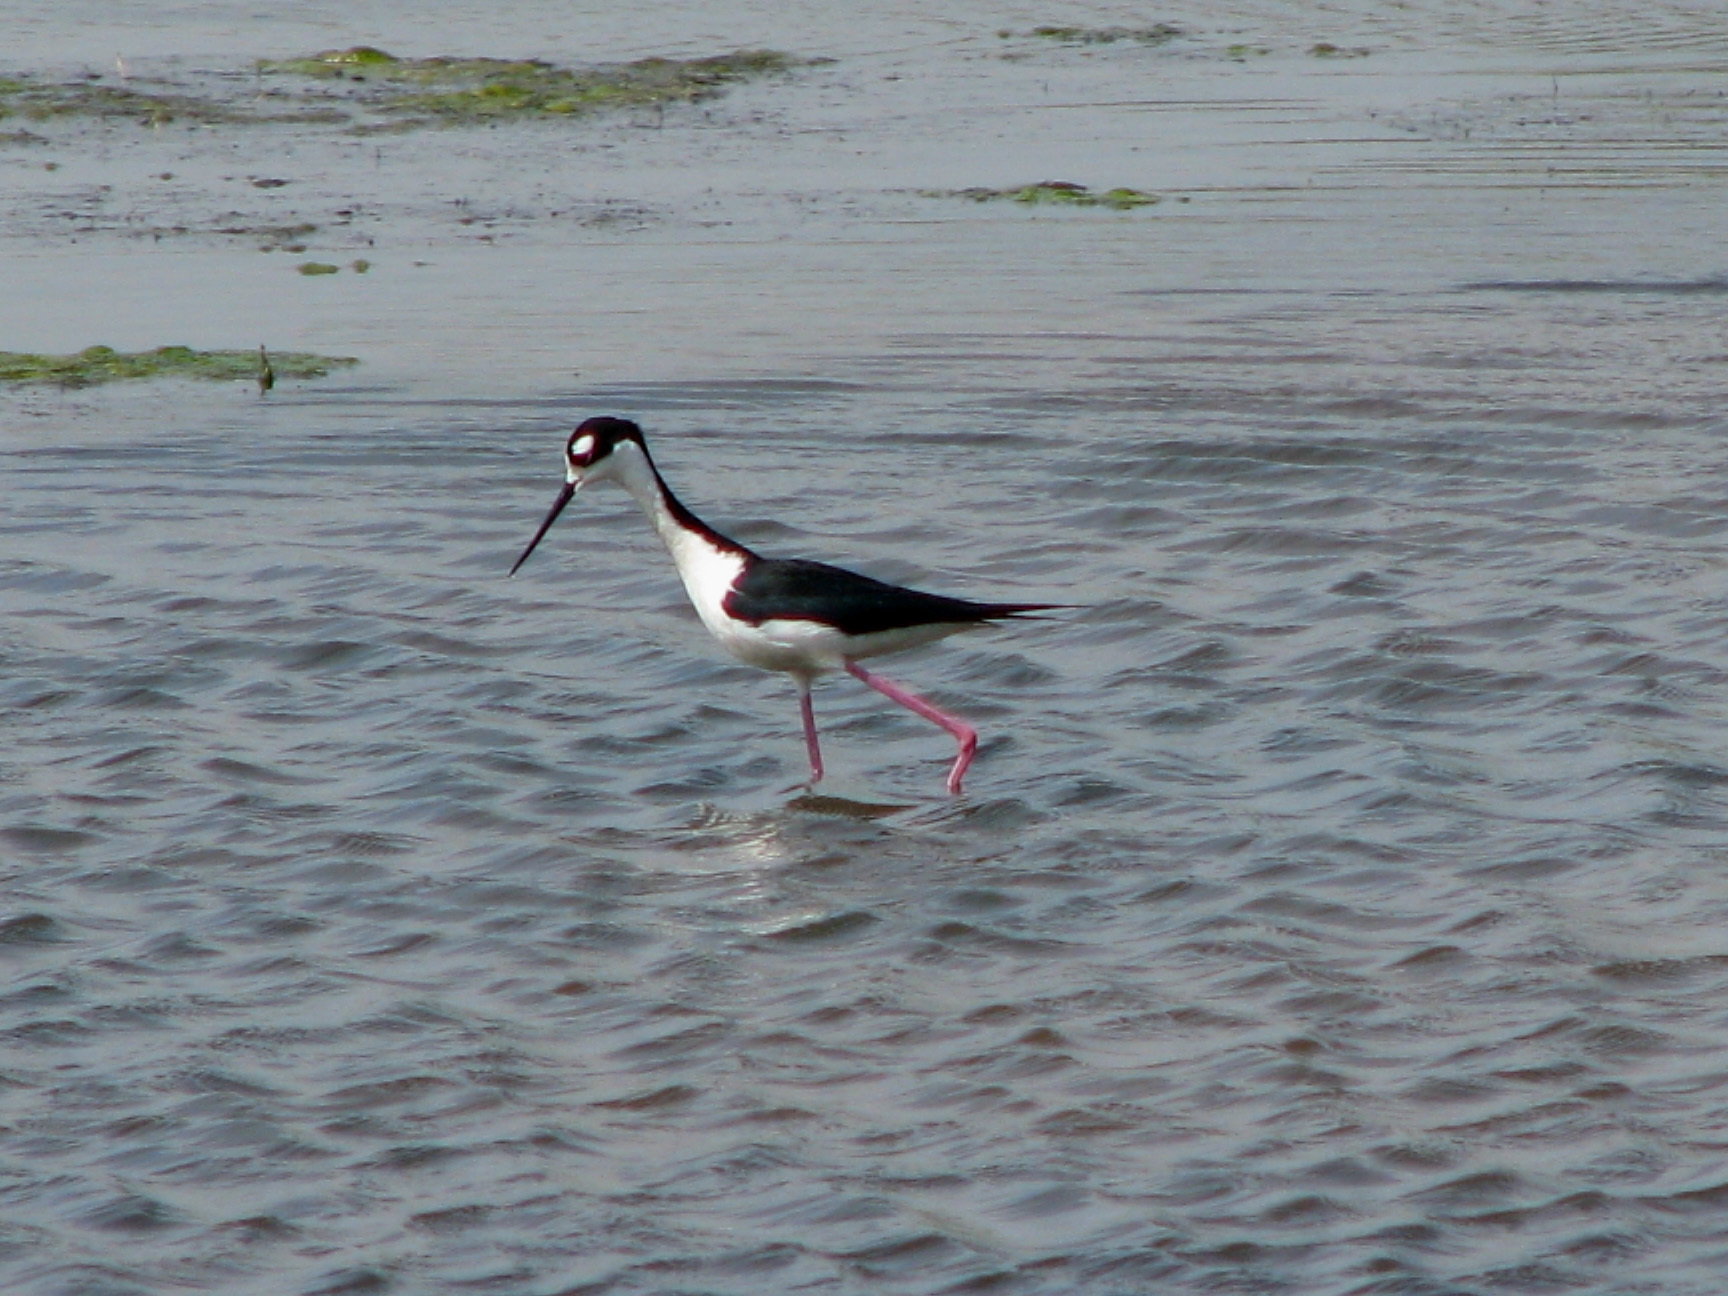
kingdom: Animalia
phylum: Chordata
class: Aves
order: Charadriiformes
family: Recurvirostridae
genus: Himantopus
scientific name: Himantopus mexicanus
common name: Black-necked stilt
